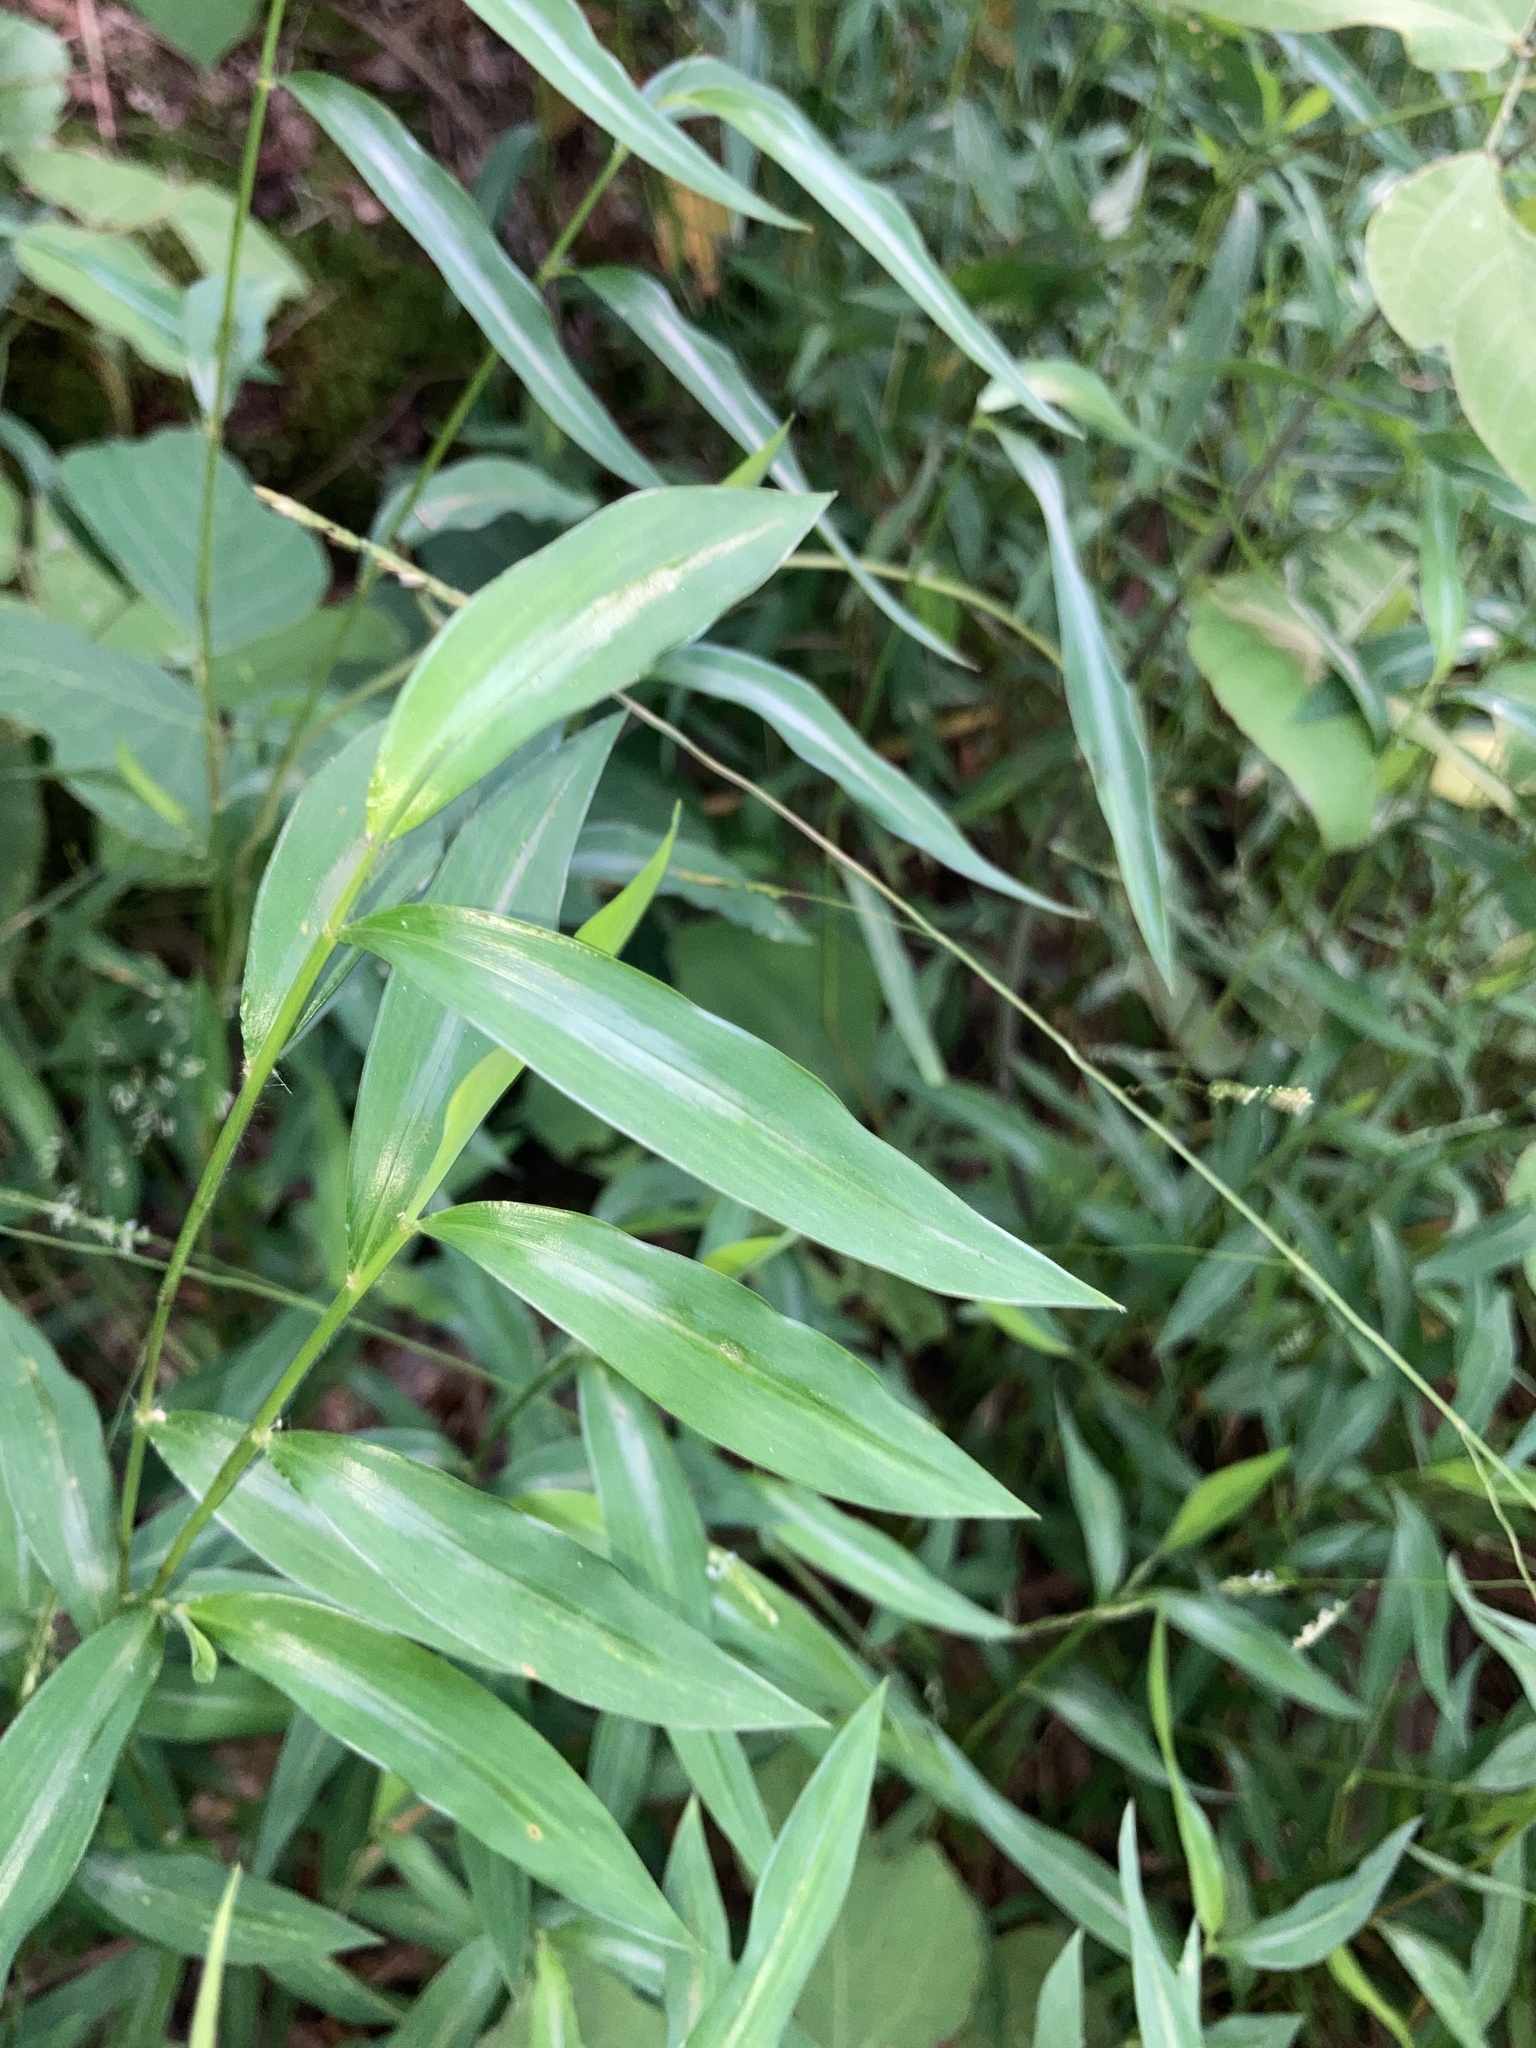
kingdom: Plantae
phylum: Tracheophyta
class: Liliopsida
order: Poales
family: Poaceae
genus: Microstegium
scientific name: Microstegium vimineum
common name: Japanese stiltgrass
